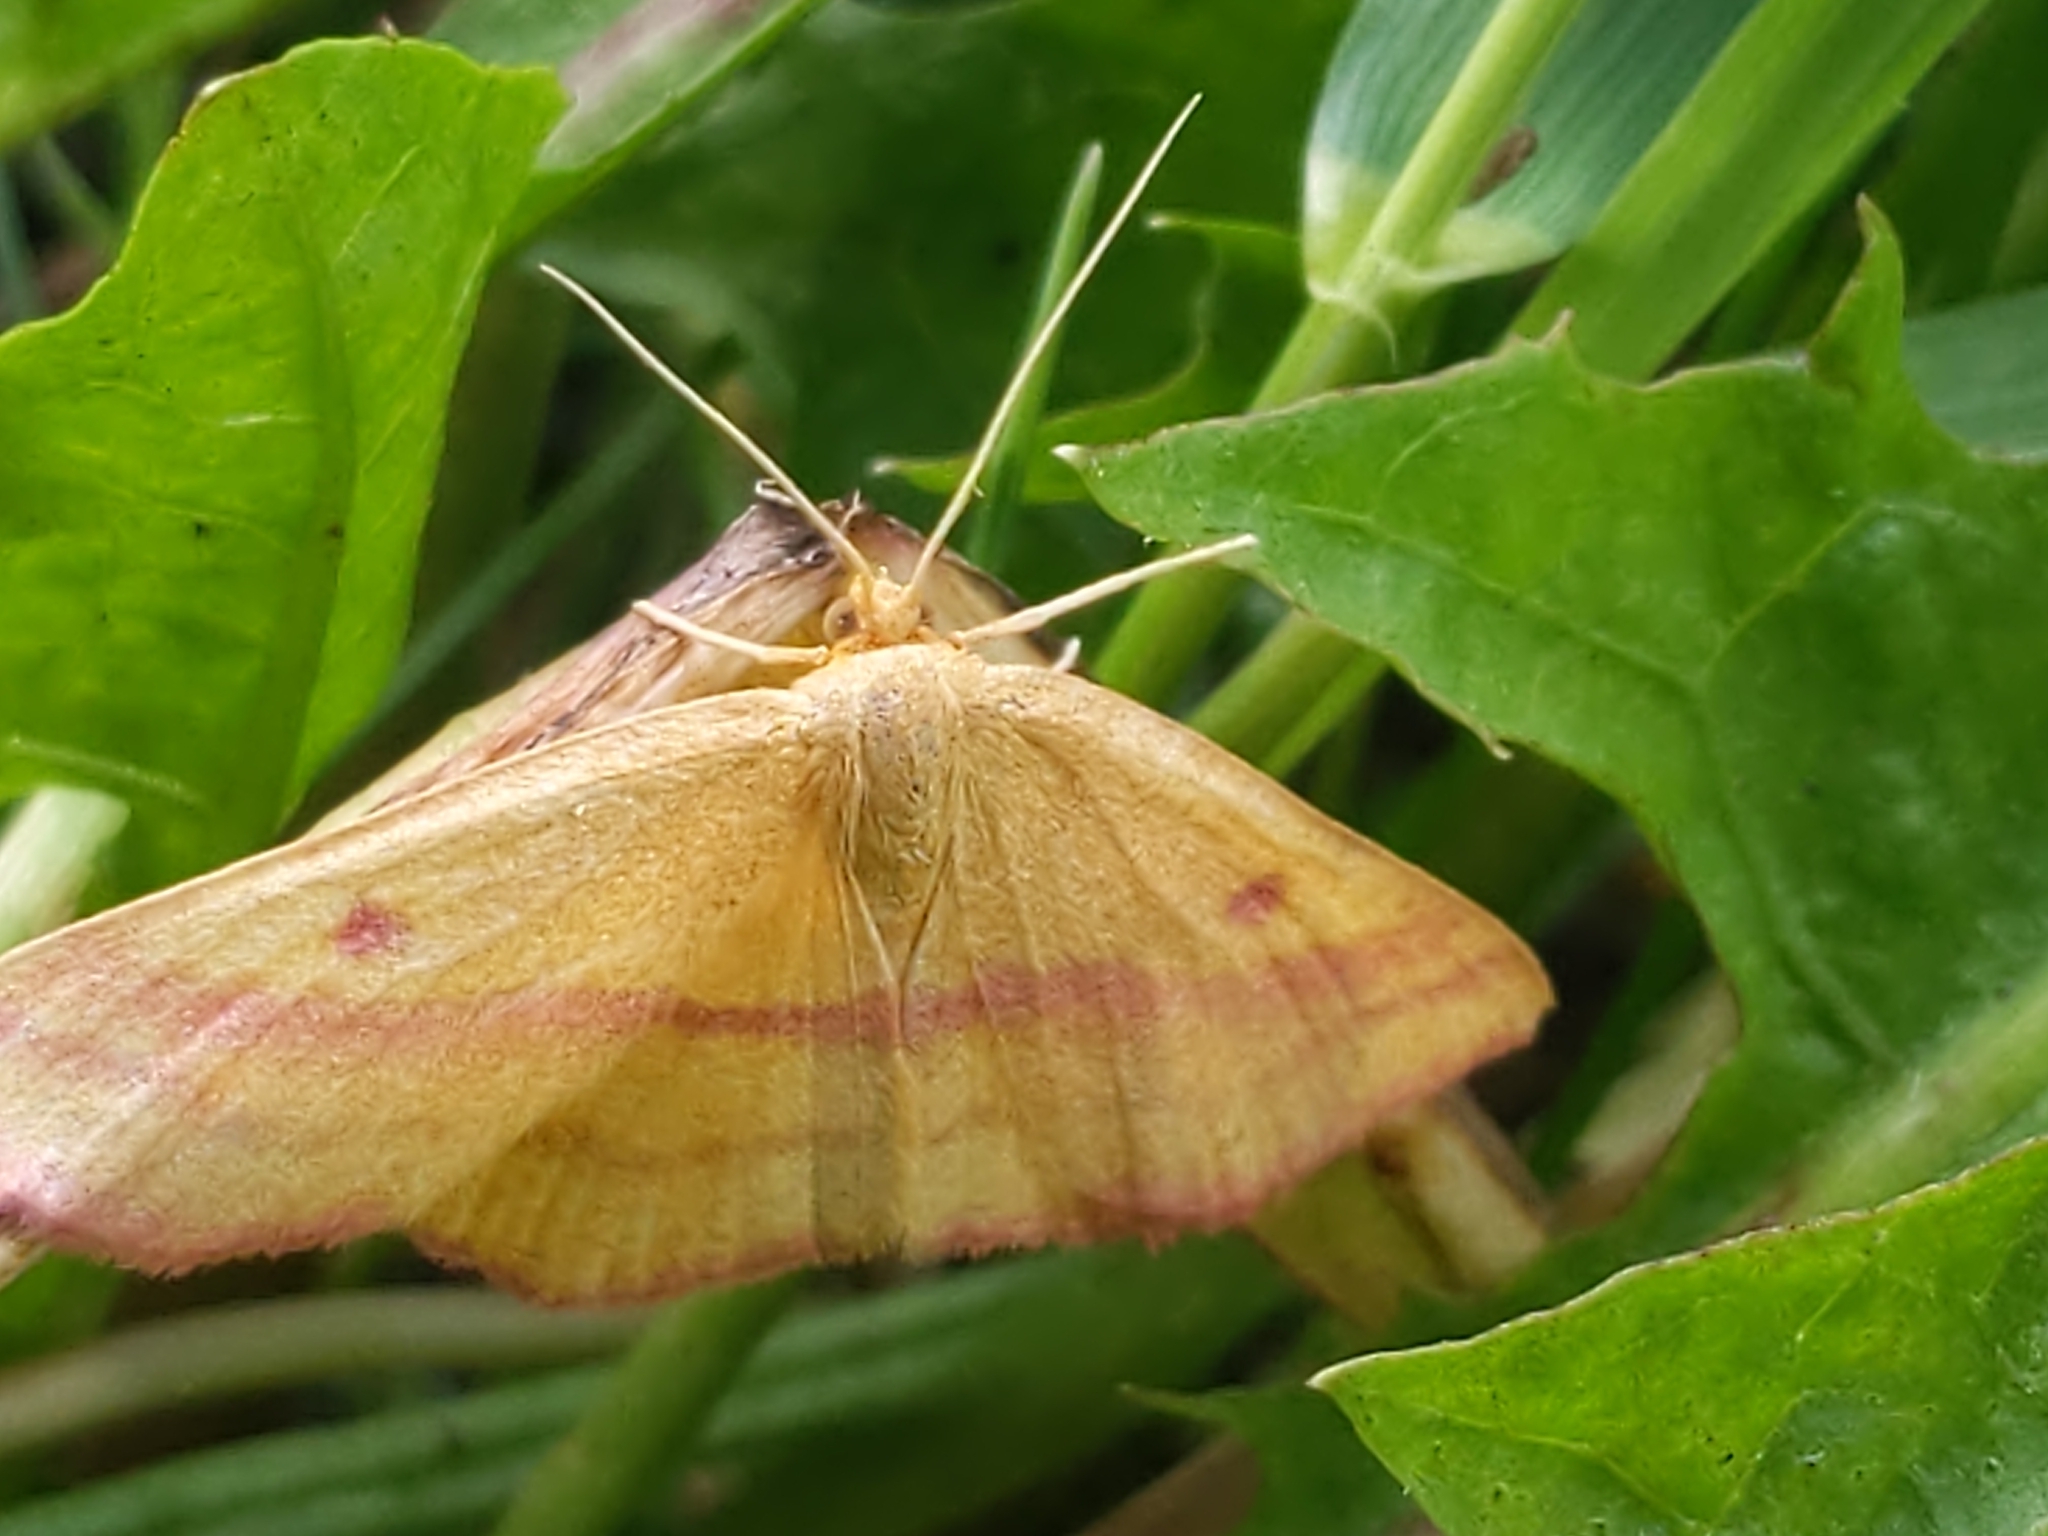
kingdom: Animalia
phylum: Arthropoda
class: Insecta
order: Lepidoptera
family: Geometridae
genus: Haematopis
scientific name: Haematopis grataria
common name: Chickweed geometer
